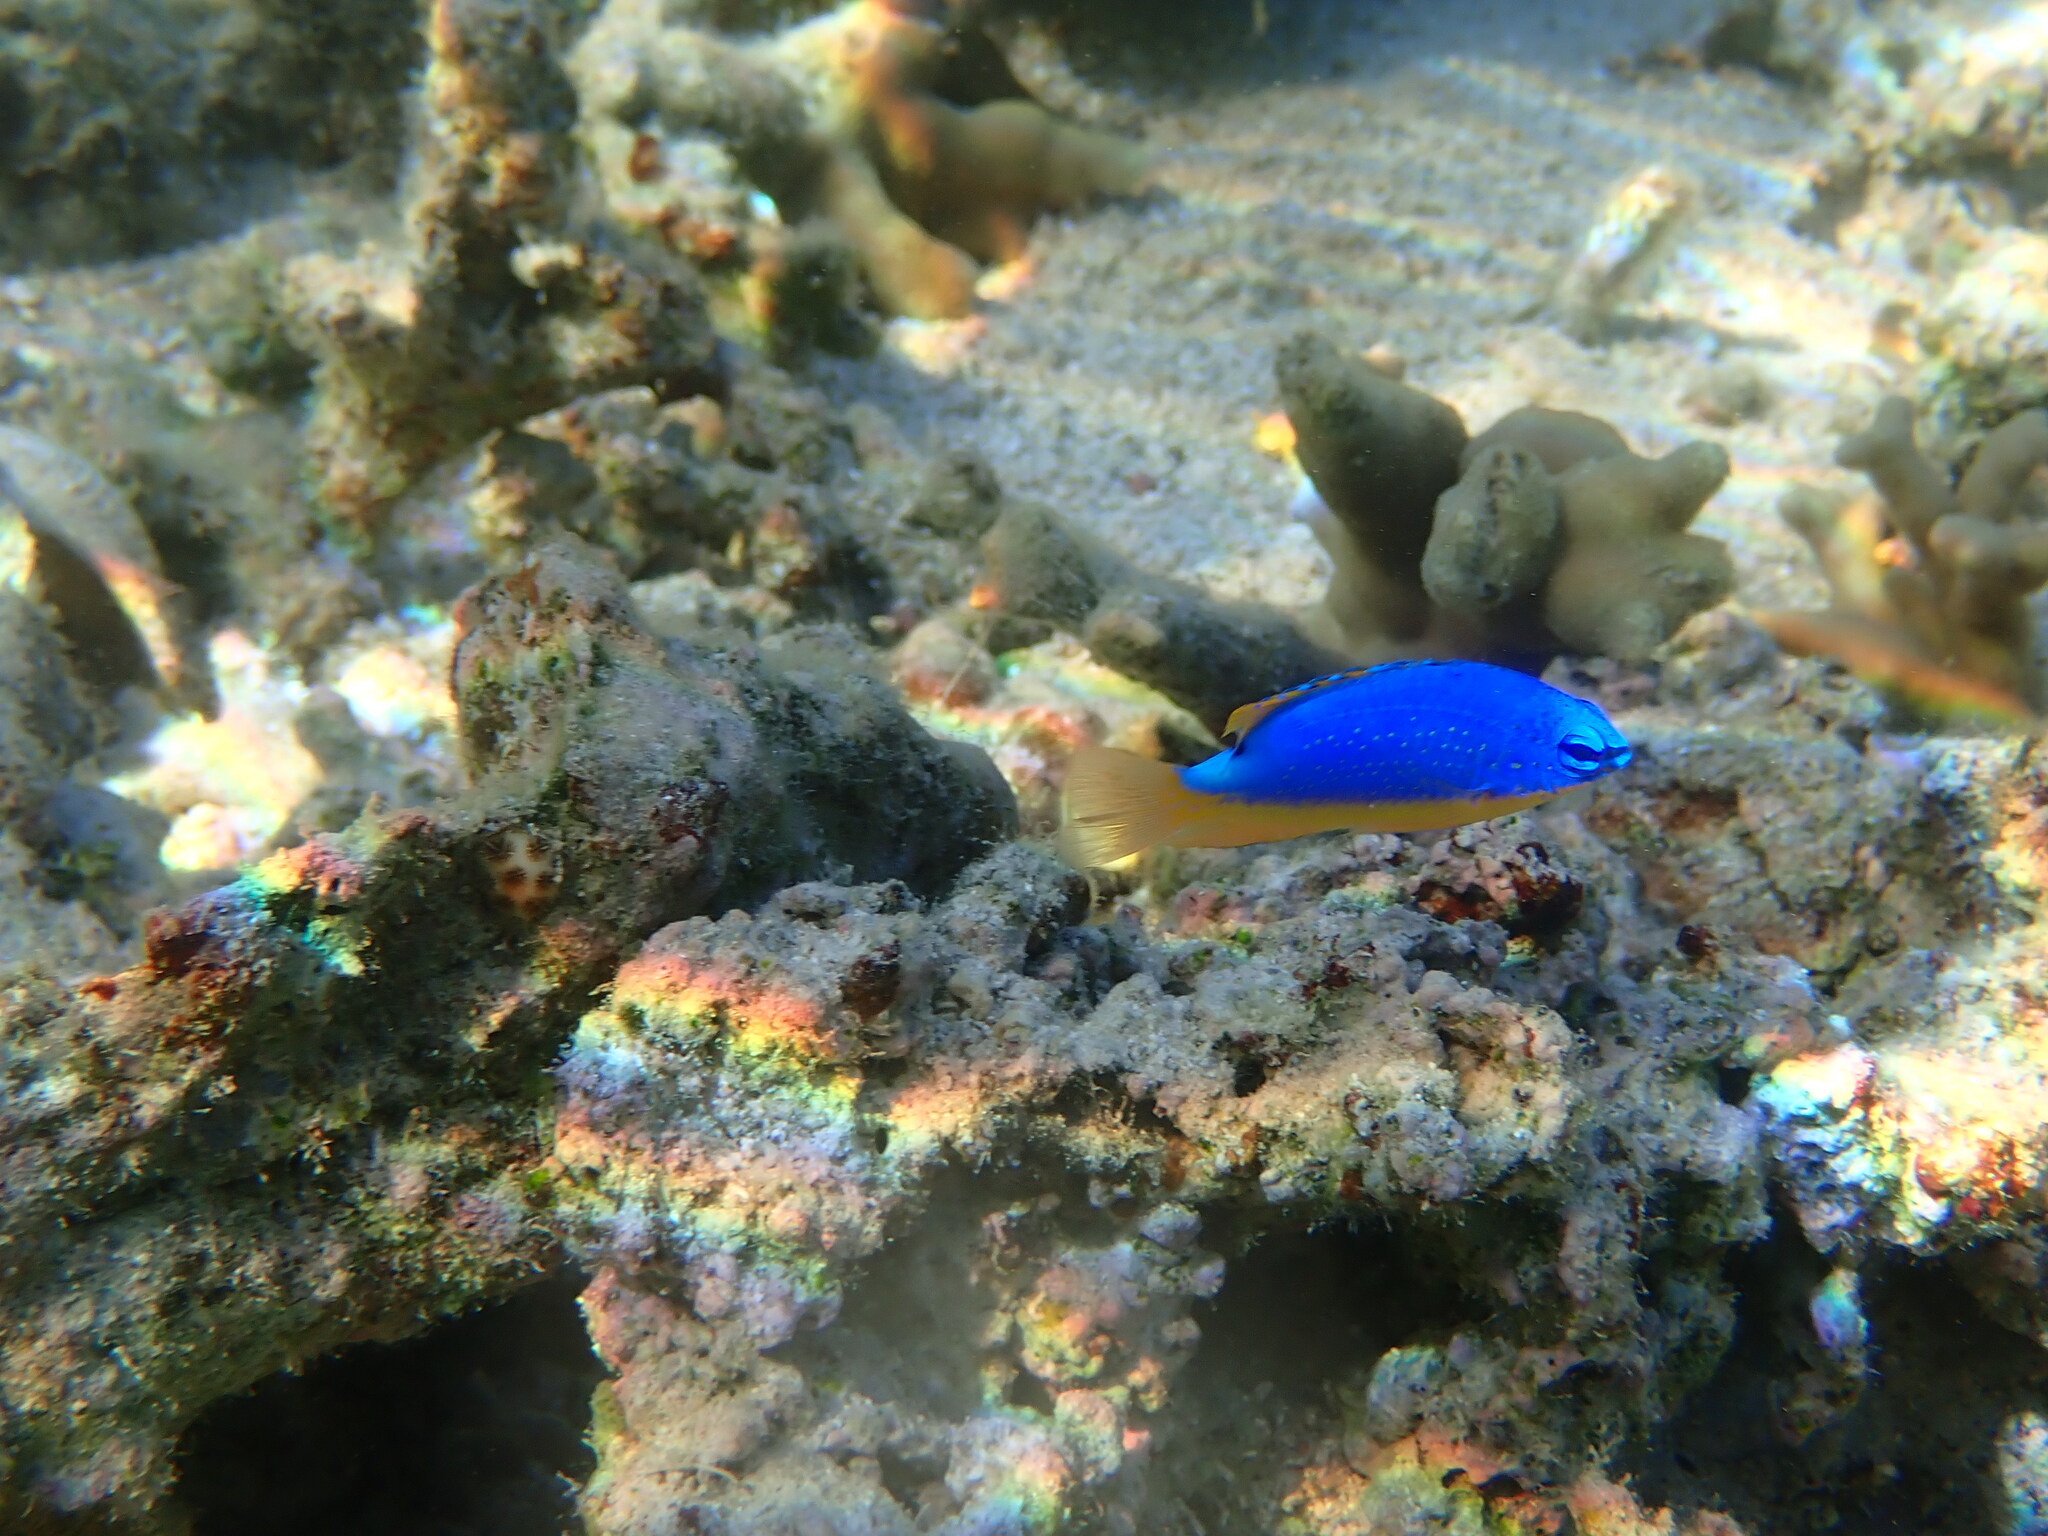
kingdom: Animalia
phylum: Chordata
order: Perciformes
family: Pomacentridae
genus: Chrysiptera
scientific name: Chrysiptera taupou
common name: Fiji damsel
